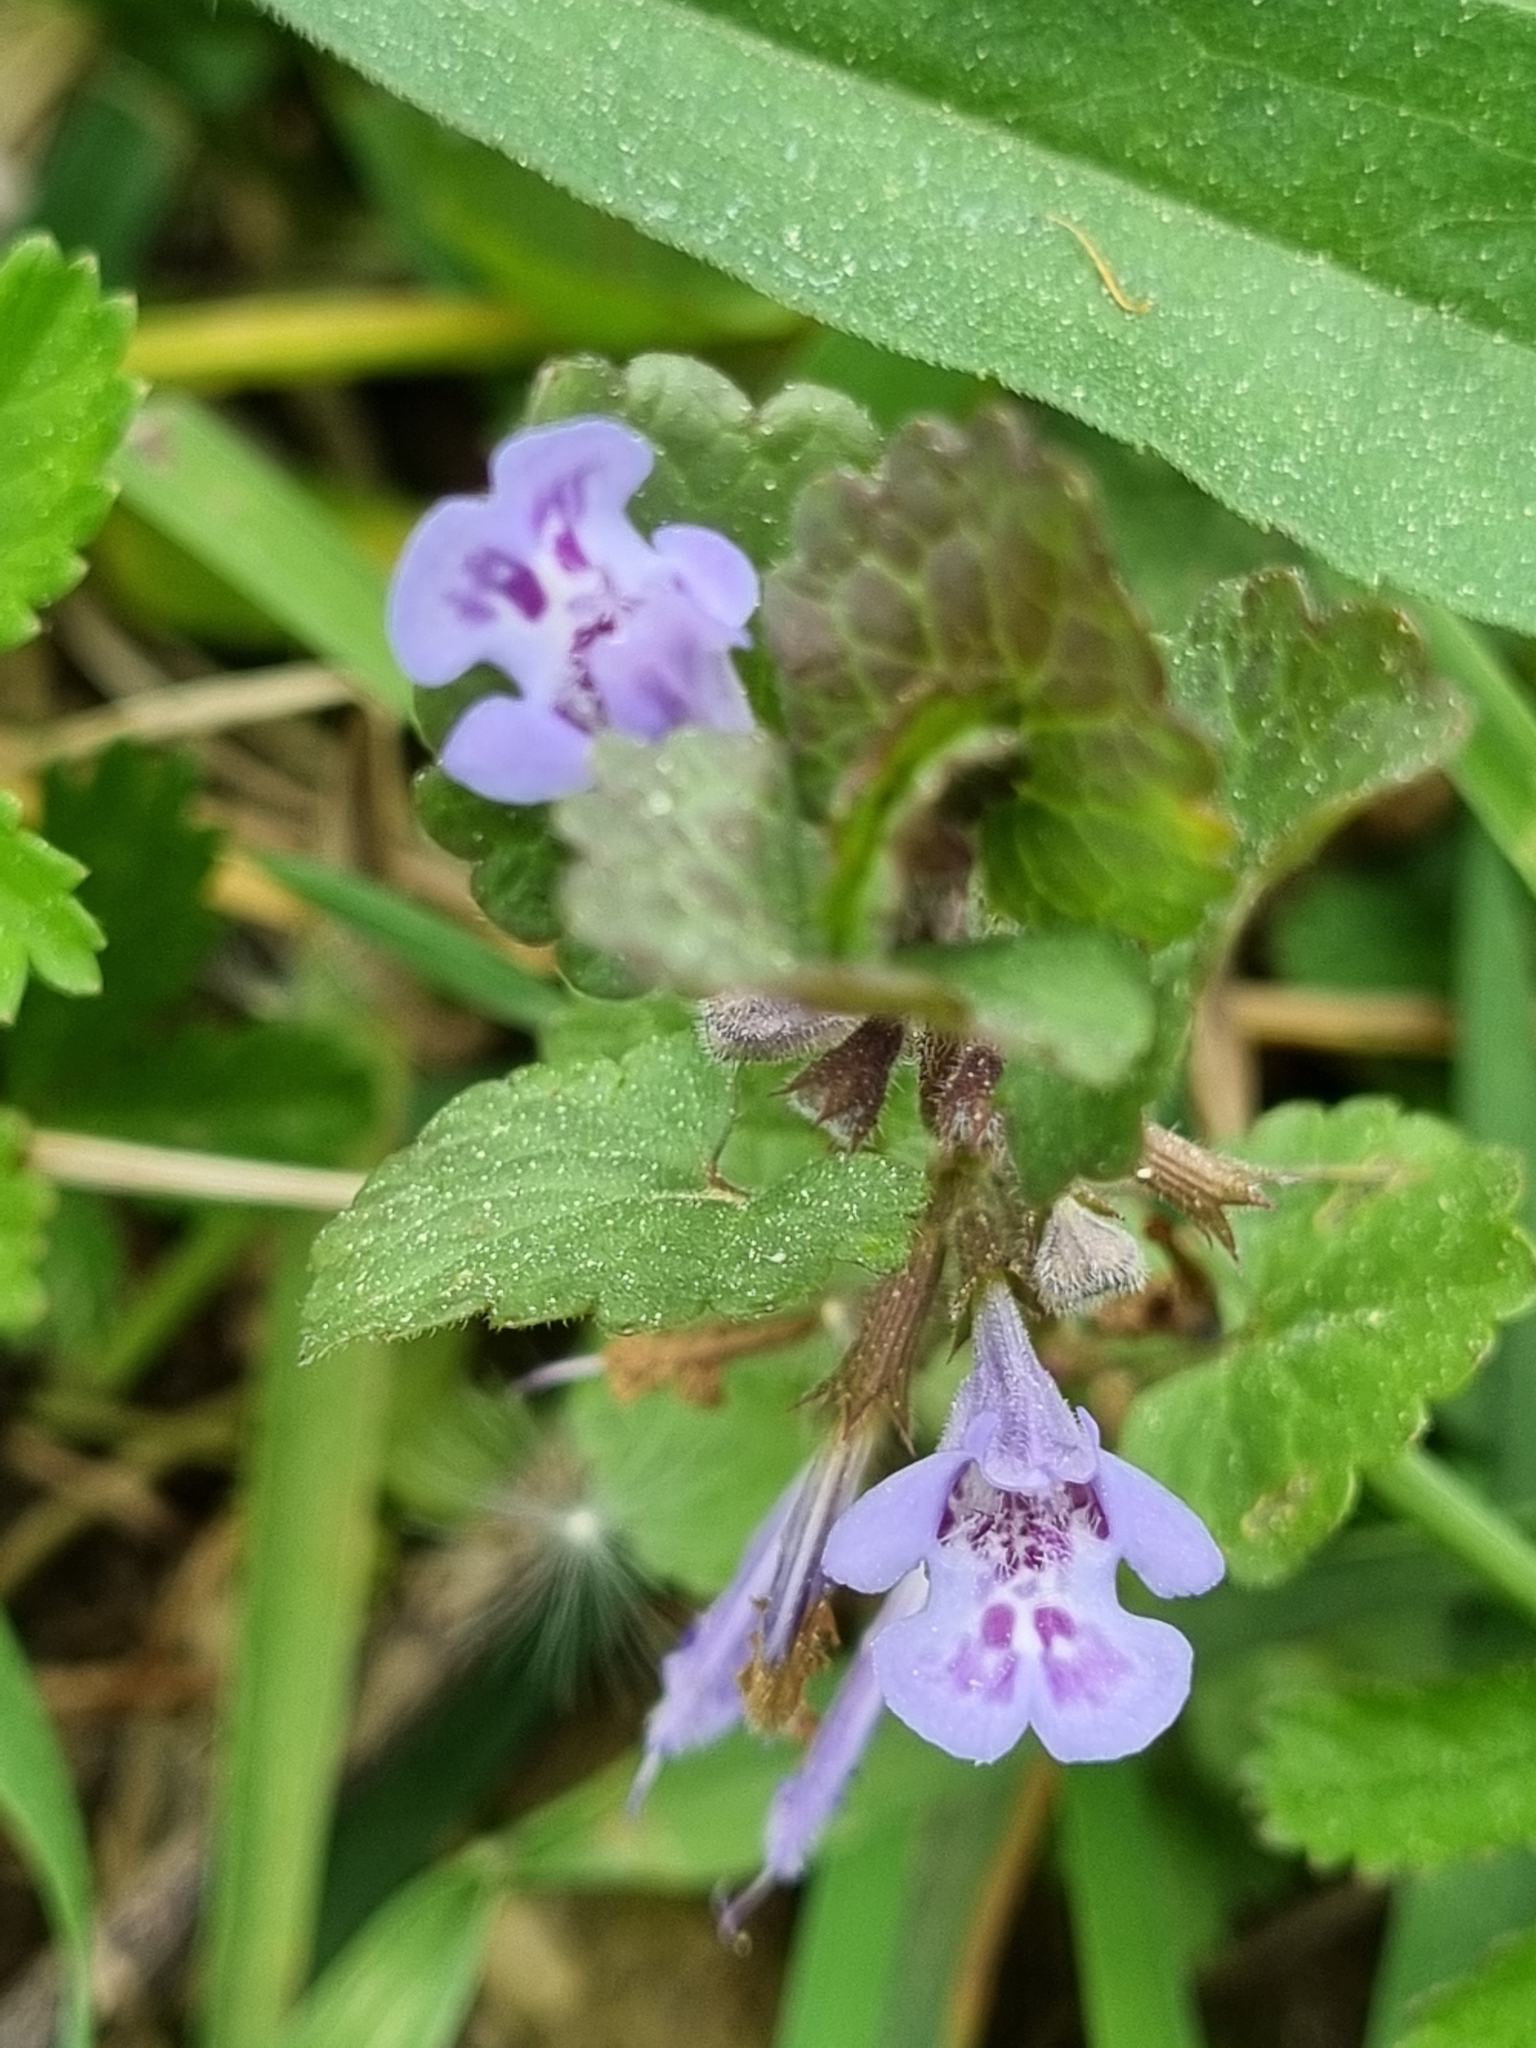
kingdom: Plantae
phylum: Tracheophyta
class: Magnoliopsida
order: Lamiales
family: Lamiaceae
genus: Glechoma
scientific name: Glechoma hederacea
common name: Ground ivy
